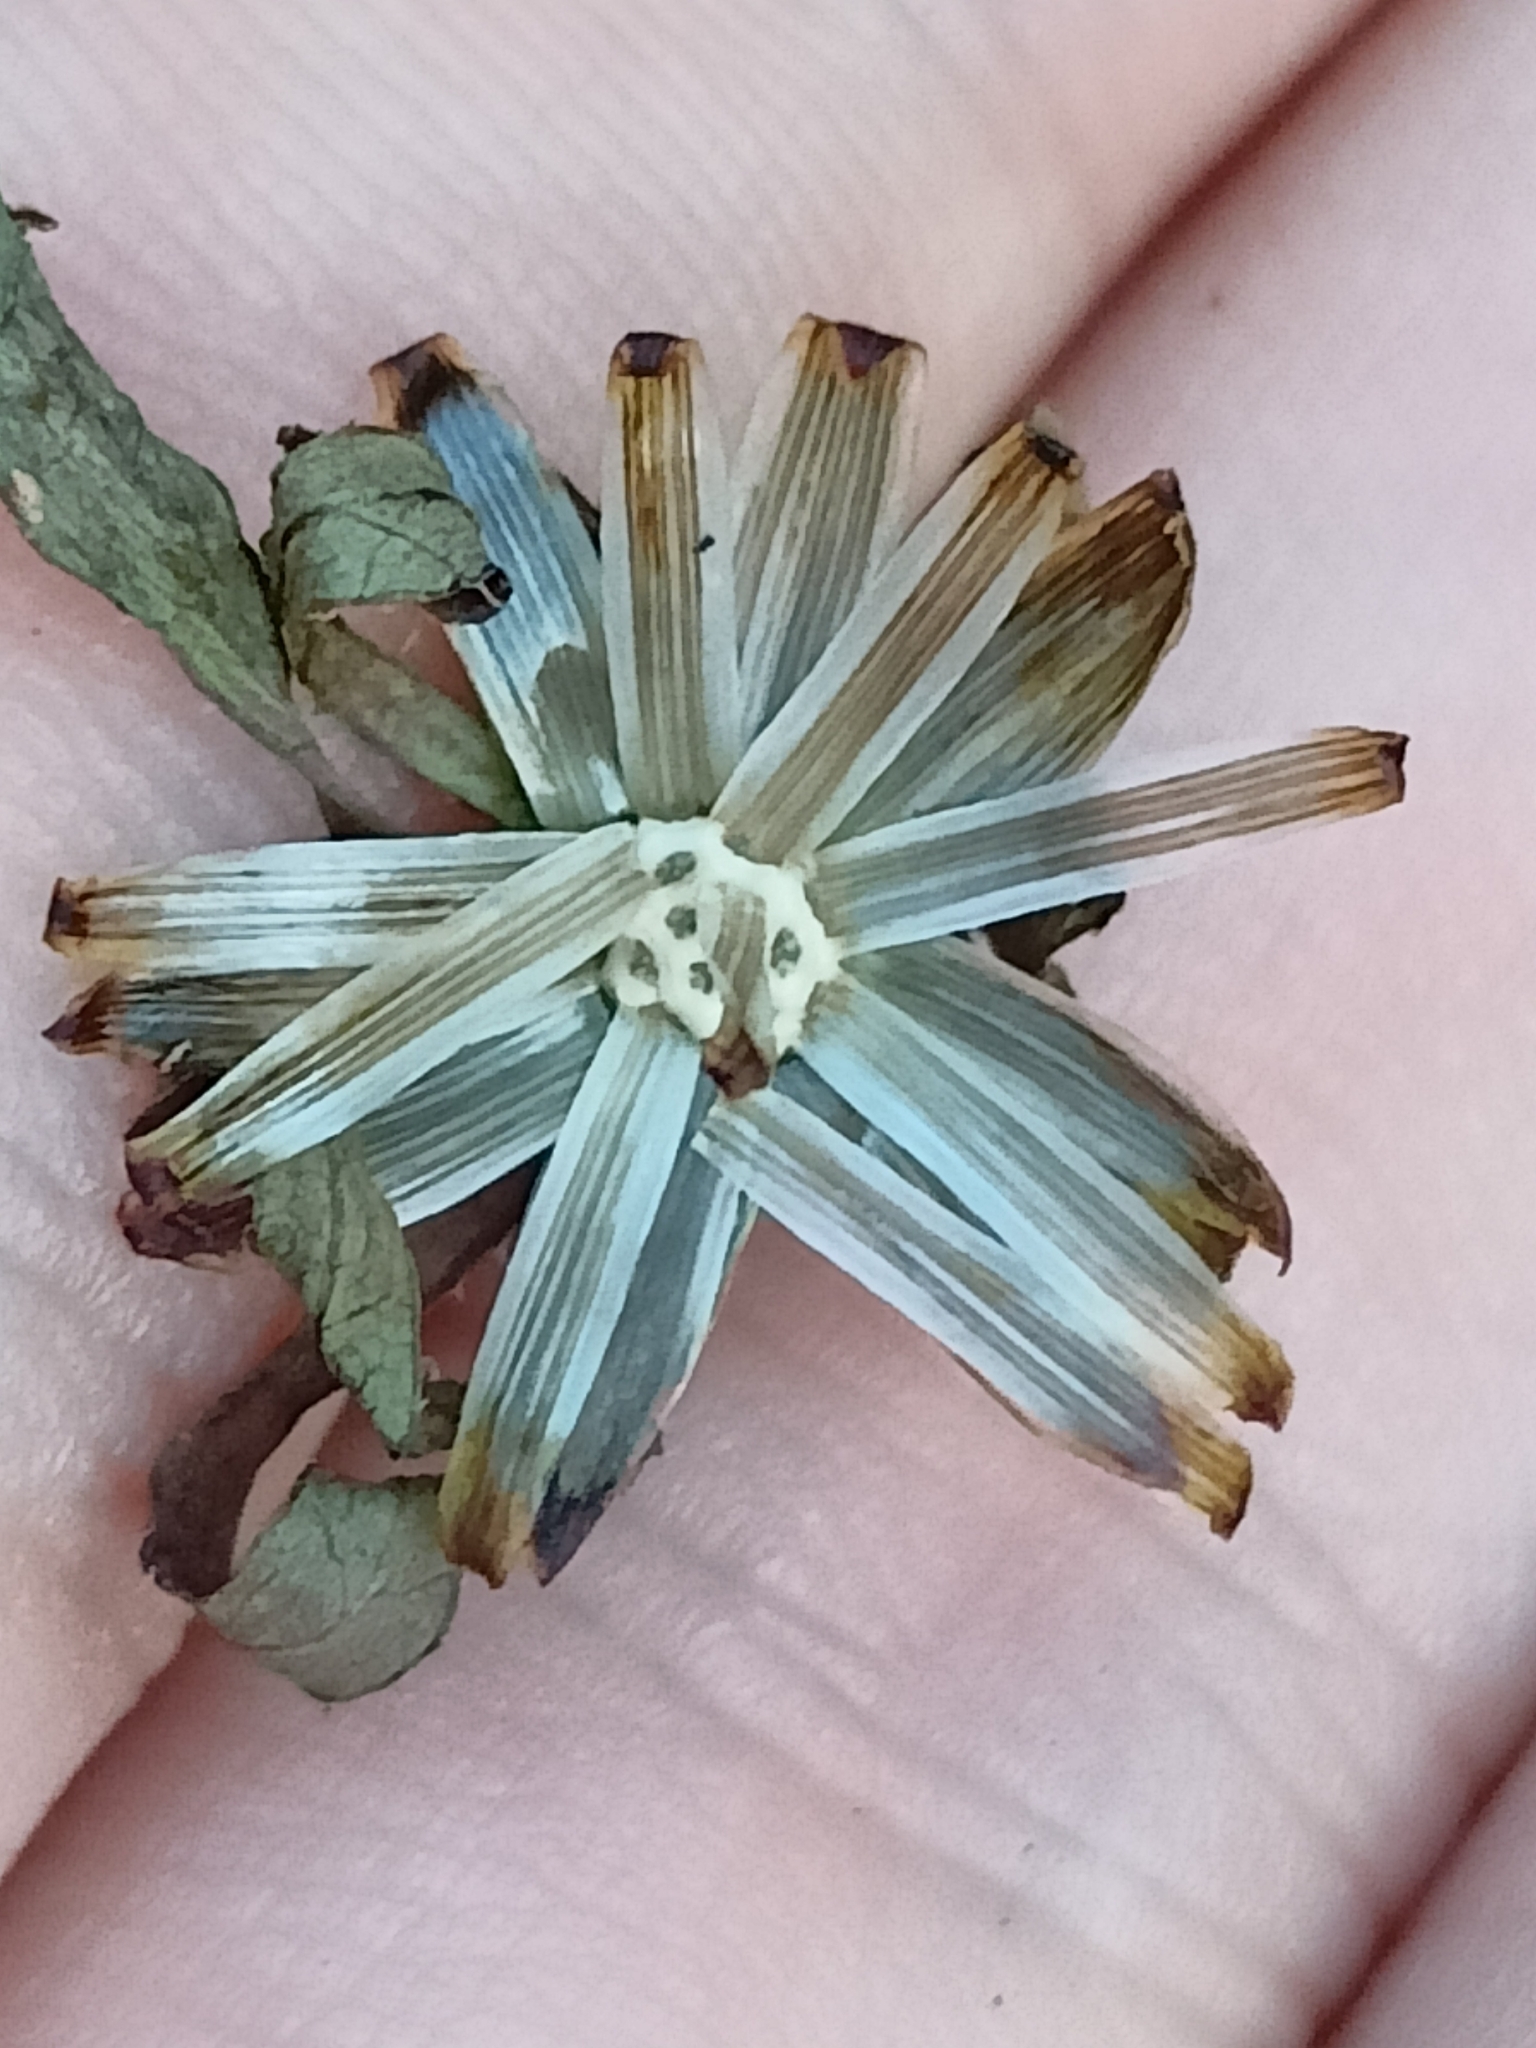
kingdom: Plantae
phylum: Tracheophyta
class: Magnoliopsida
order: Asterales
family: Asteraceae
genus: Bidens
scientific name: Bidens frondosa
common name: Beggarticks
